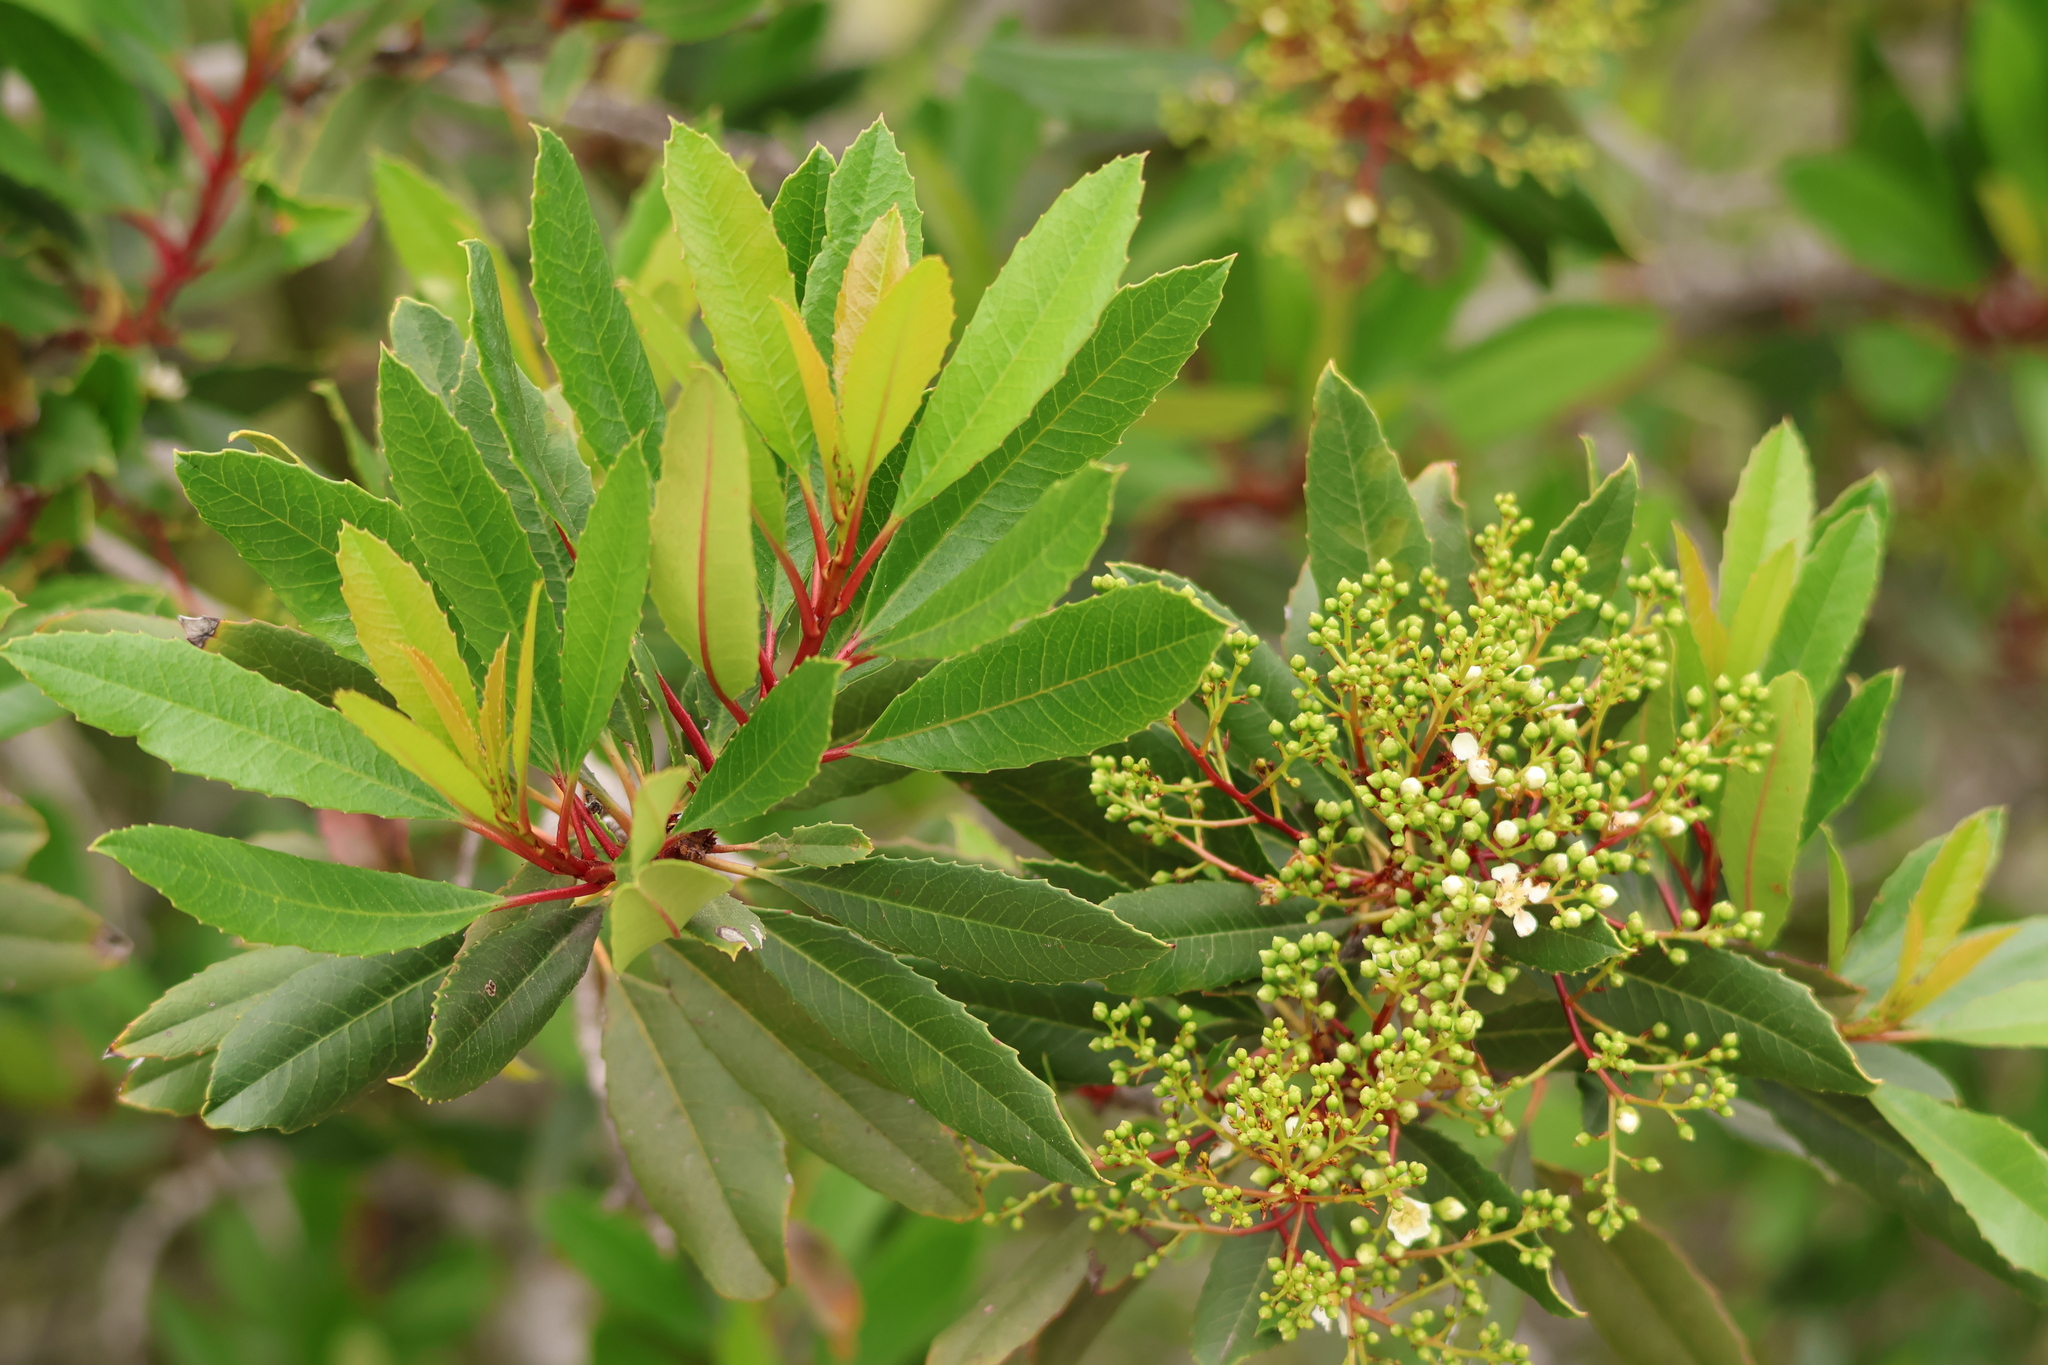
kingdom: Plantae
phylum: Tracheophyta
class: Magnoliopsida
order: Rosales
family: Rosaceae
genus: Heteromeles
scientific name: Heteromeles arbutifolia
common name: California-holly
